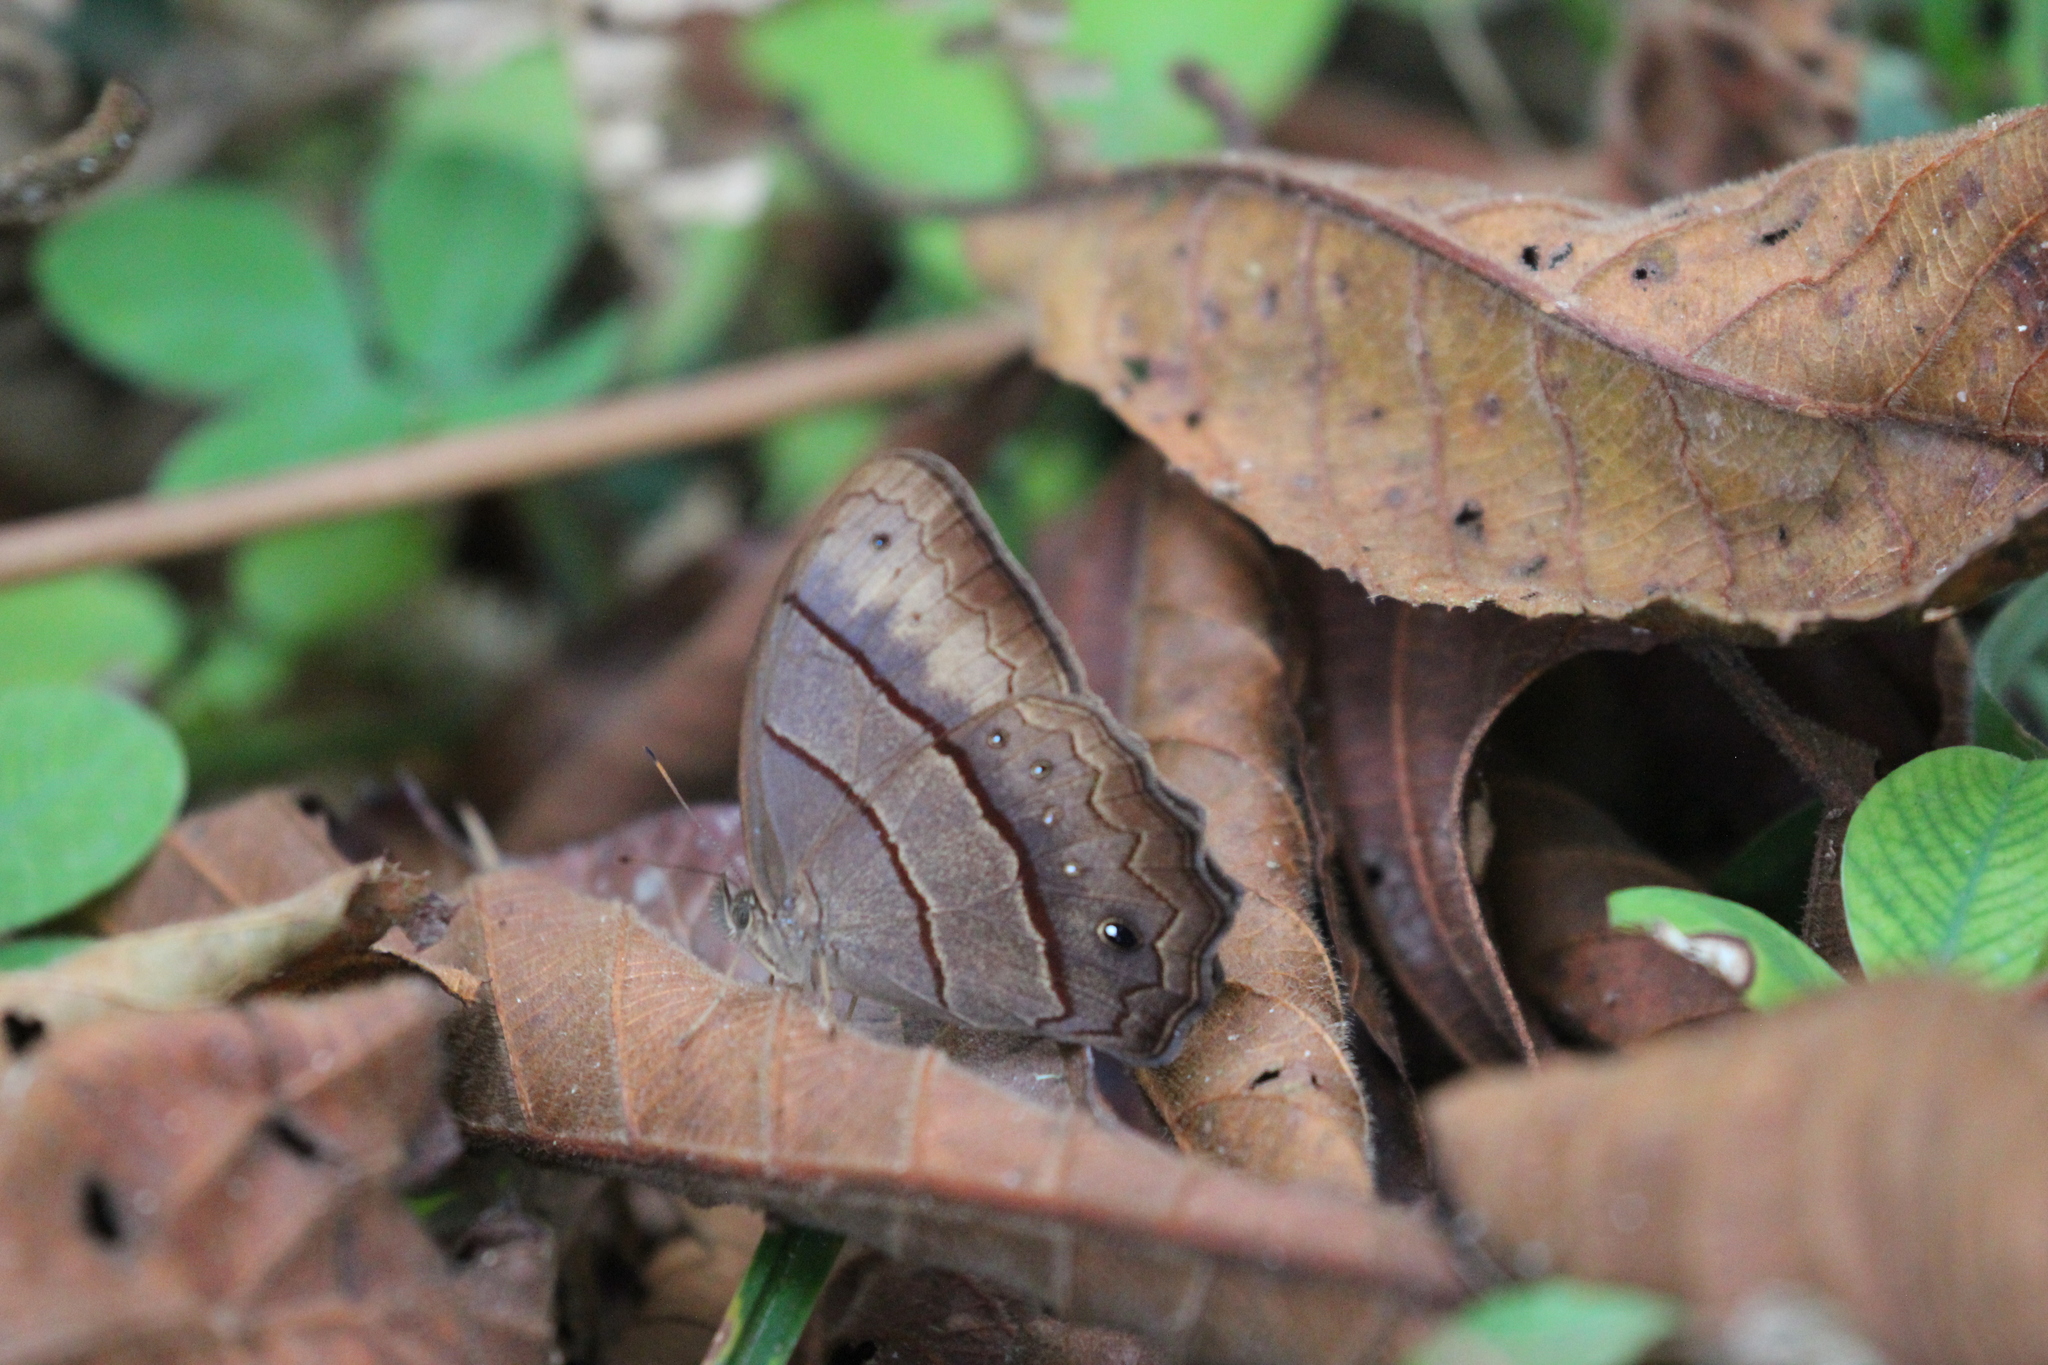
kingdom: Animalia
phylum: Arthropoda
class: Insecta
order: Lepidoptera
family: Nymphalidae
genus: Satyrotaygetis
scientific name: Satyrotaygetis satyrina
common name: Wide-bordered satyr
